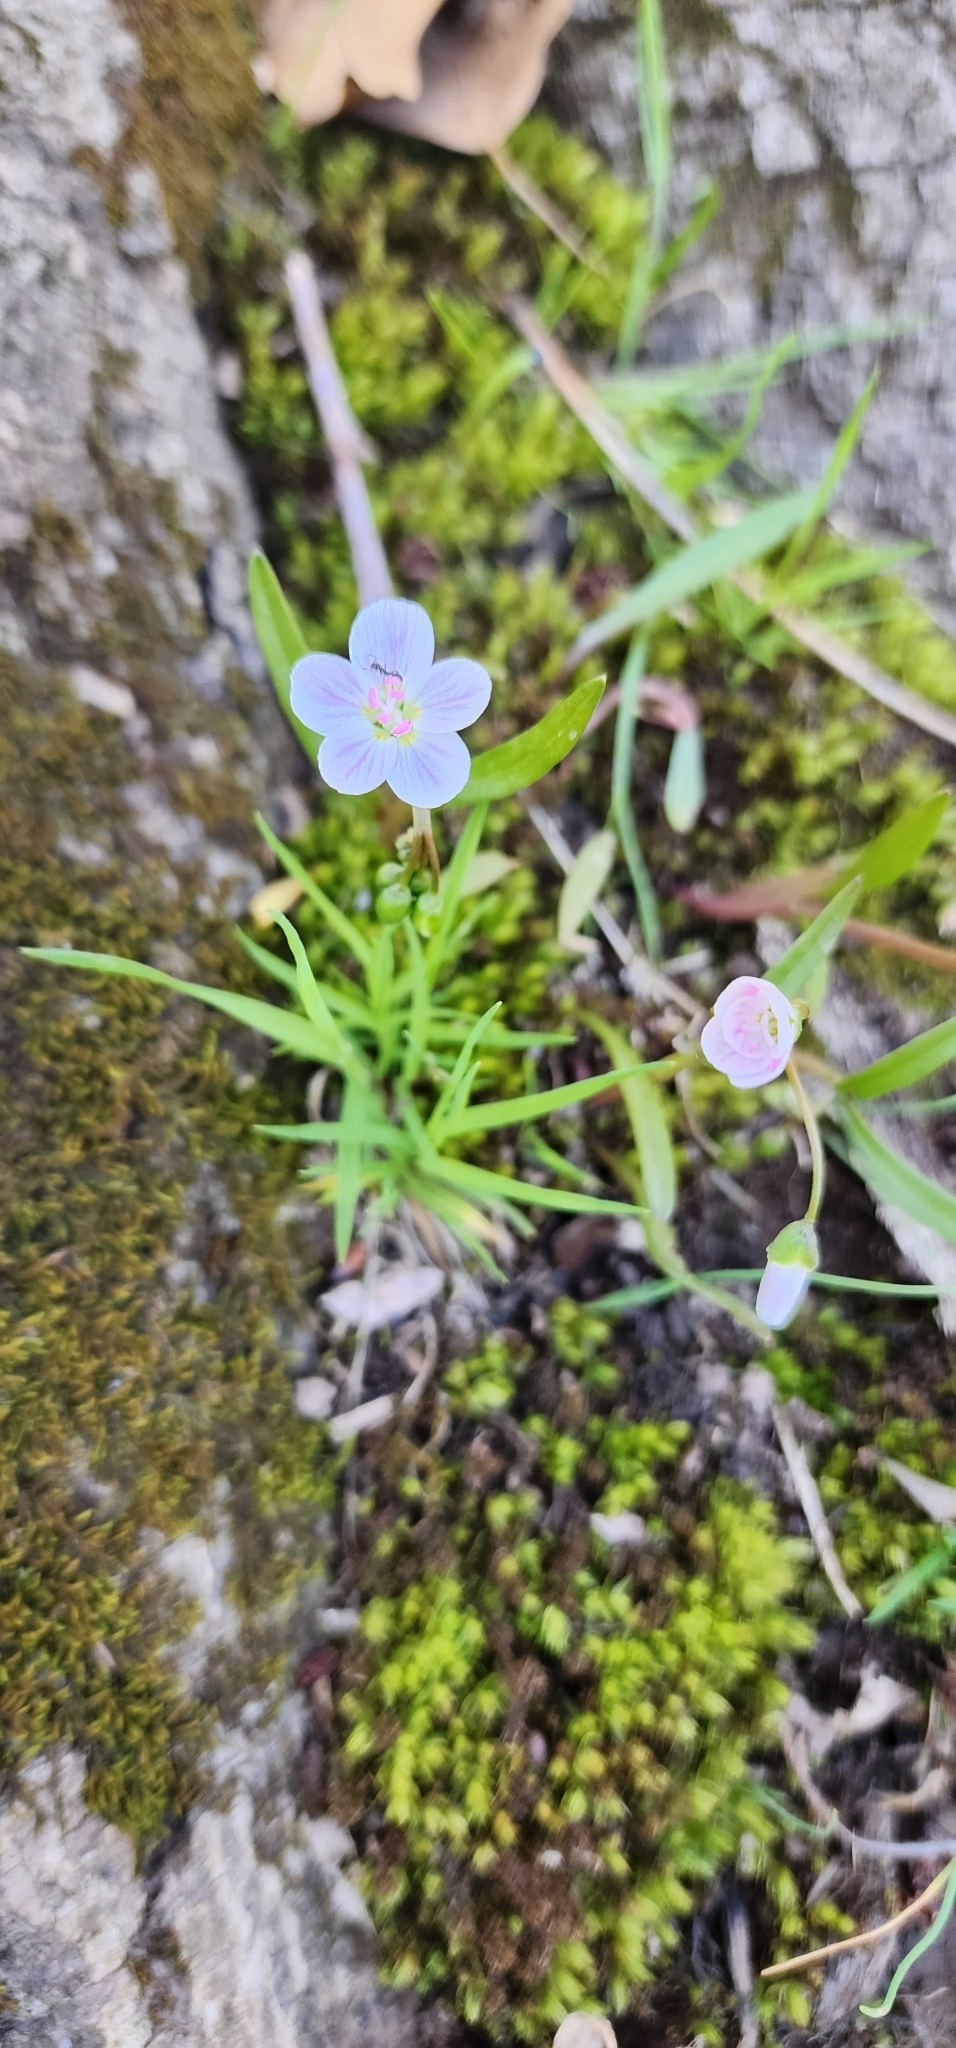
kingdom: Plantae
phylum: Tracheophyta
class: Magnoliopsida
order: Caryophyllales
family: Montiaceae
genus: Claytonia
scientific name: Claytonia virginica
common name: Virginia springbeauty
